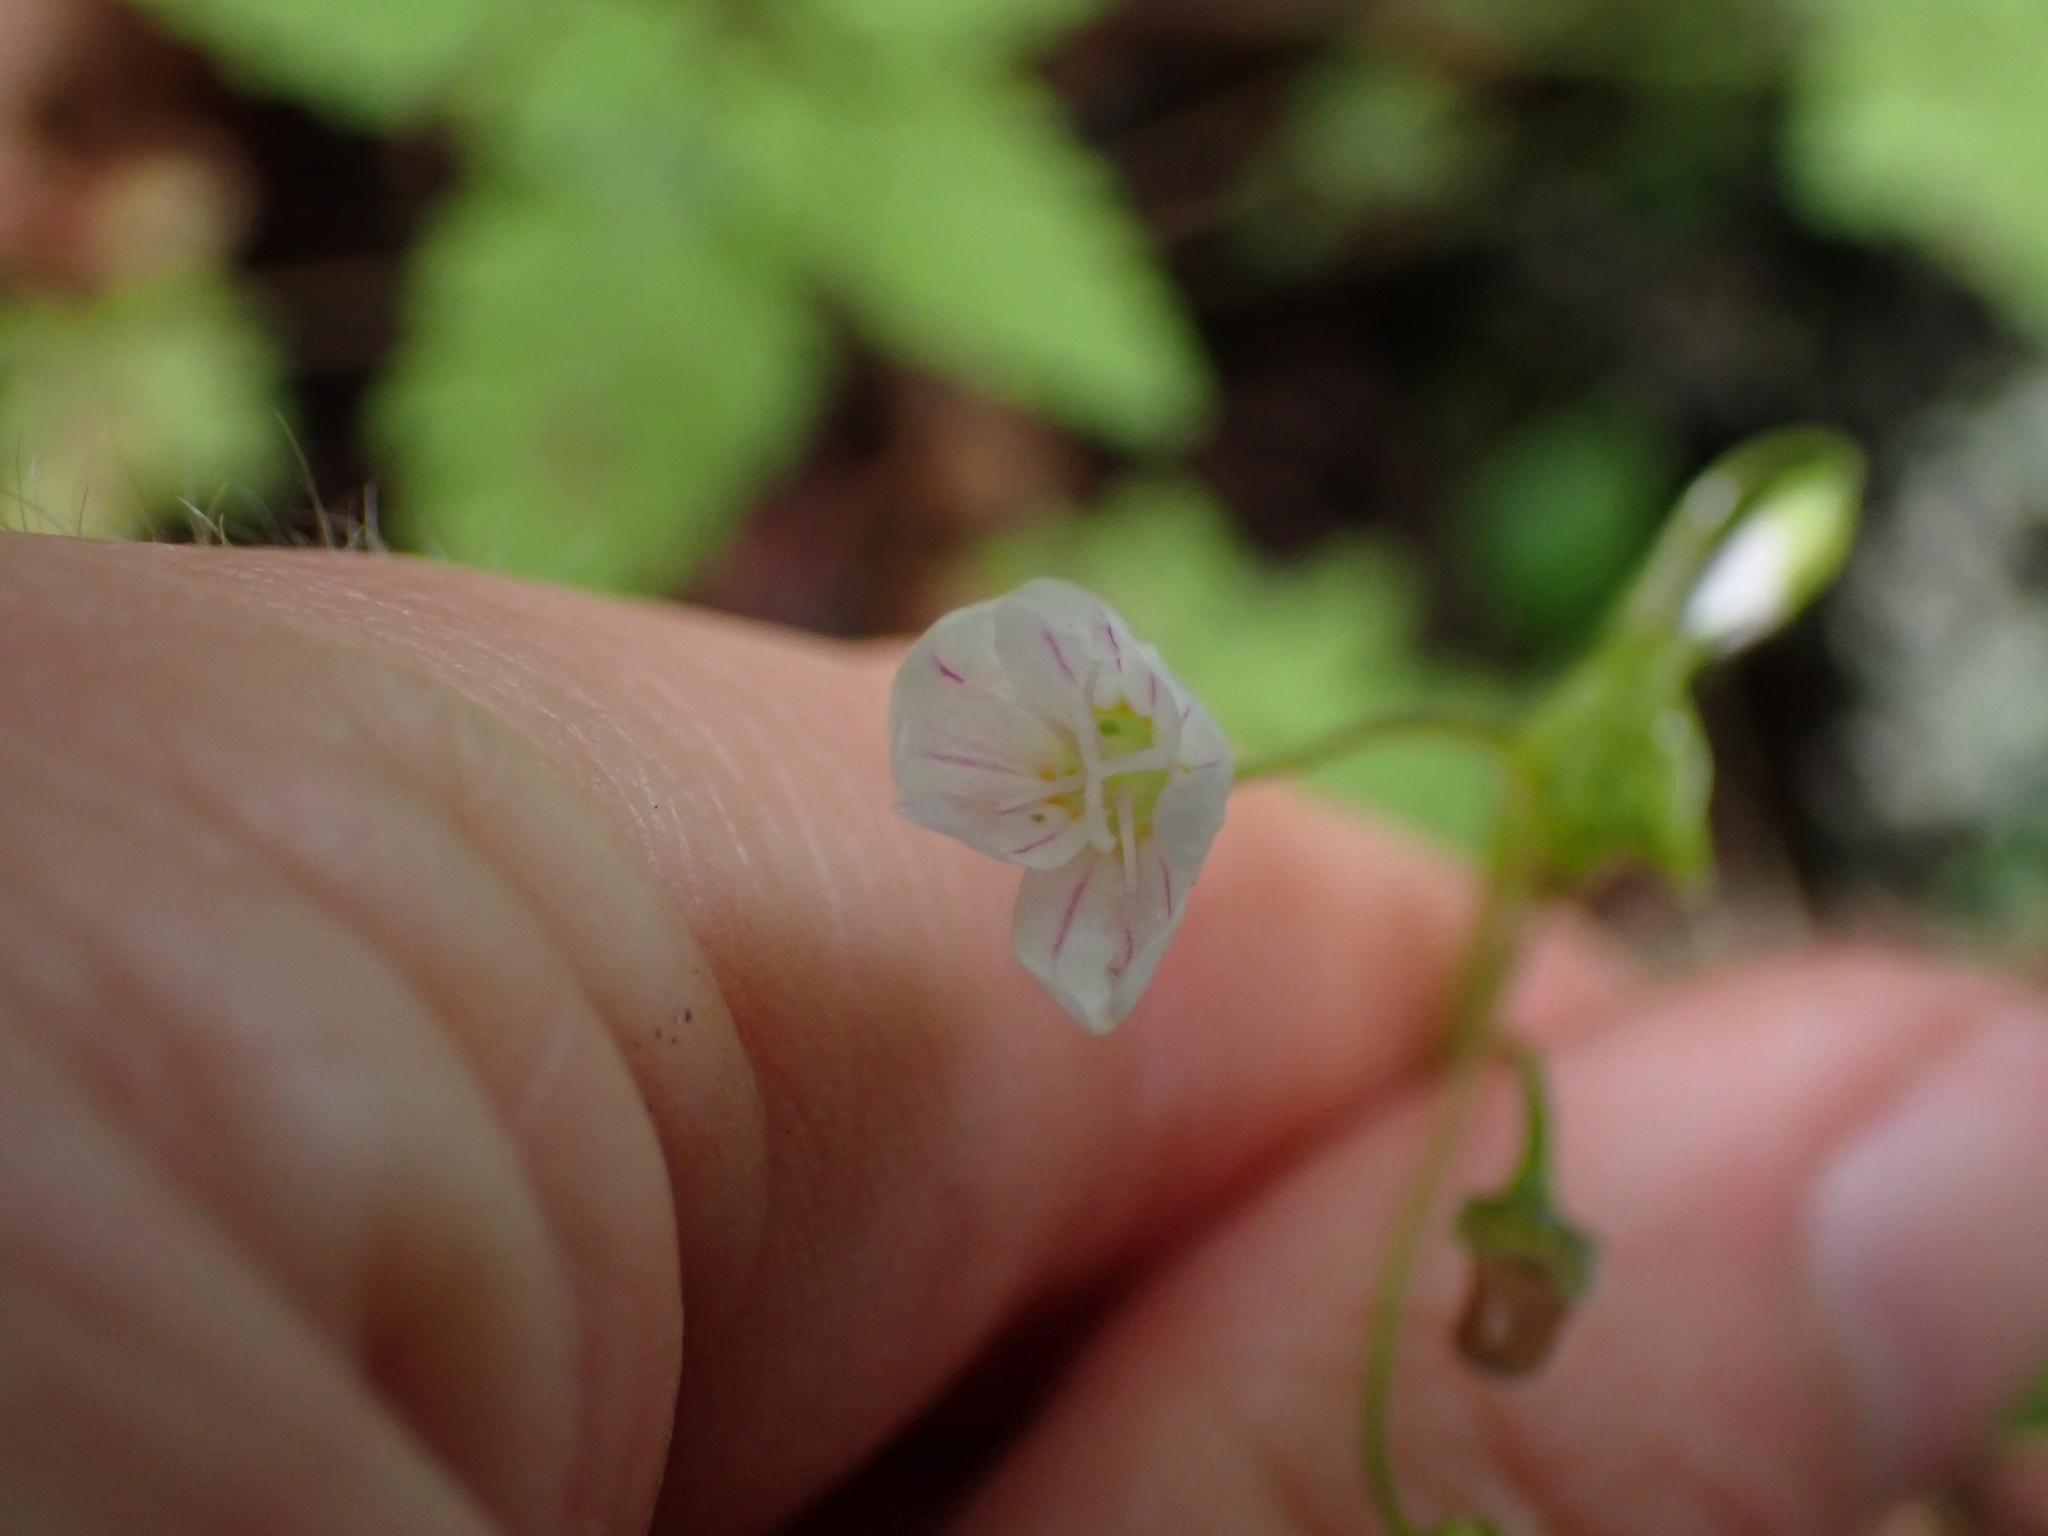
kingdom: Plantae
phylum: Tracheophyta
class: Magnoliopsida
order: Caryophyllales
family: Montiaceae
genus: Claytonia
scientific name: Claytonia sibirica
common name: Pink purslane
